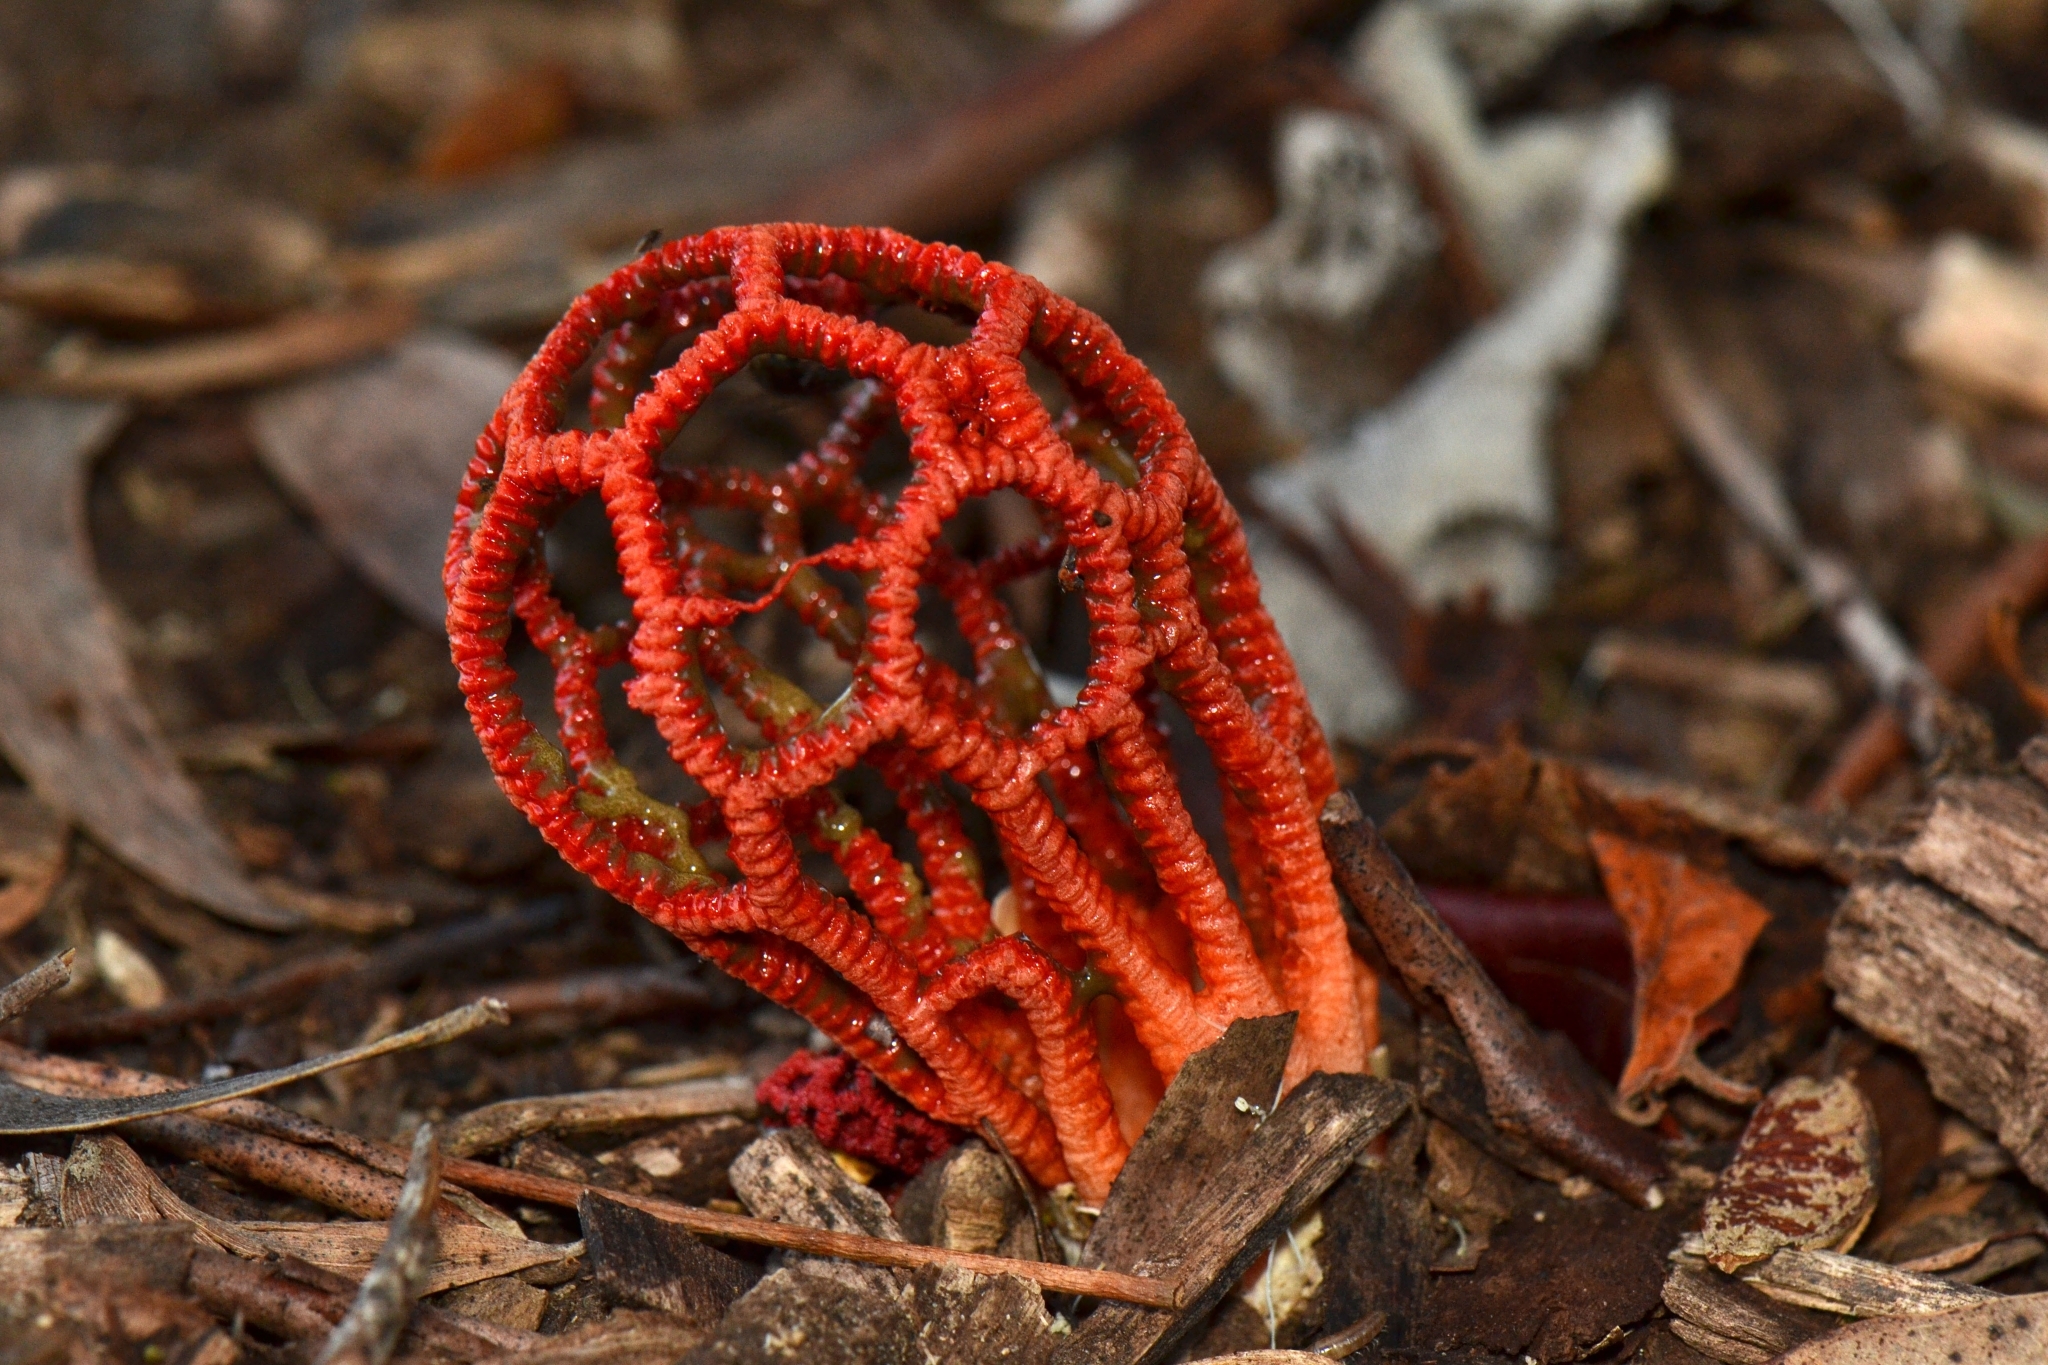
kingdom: Fungi
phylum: Basidiomycota
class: Agaricomycetes
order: Phallales
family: Phallaceae
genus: Colus
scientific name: Colus pusillus
